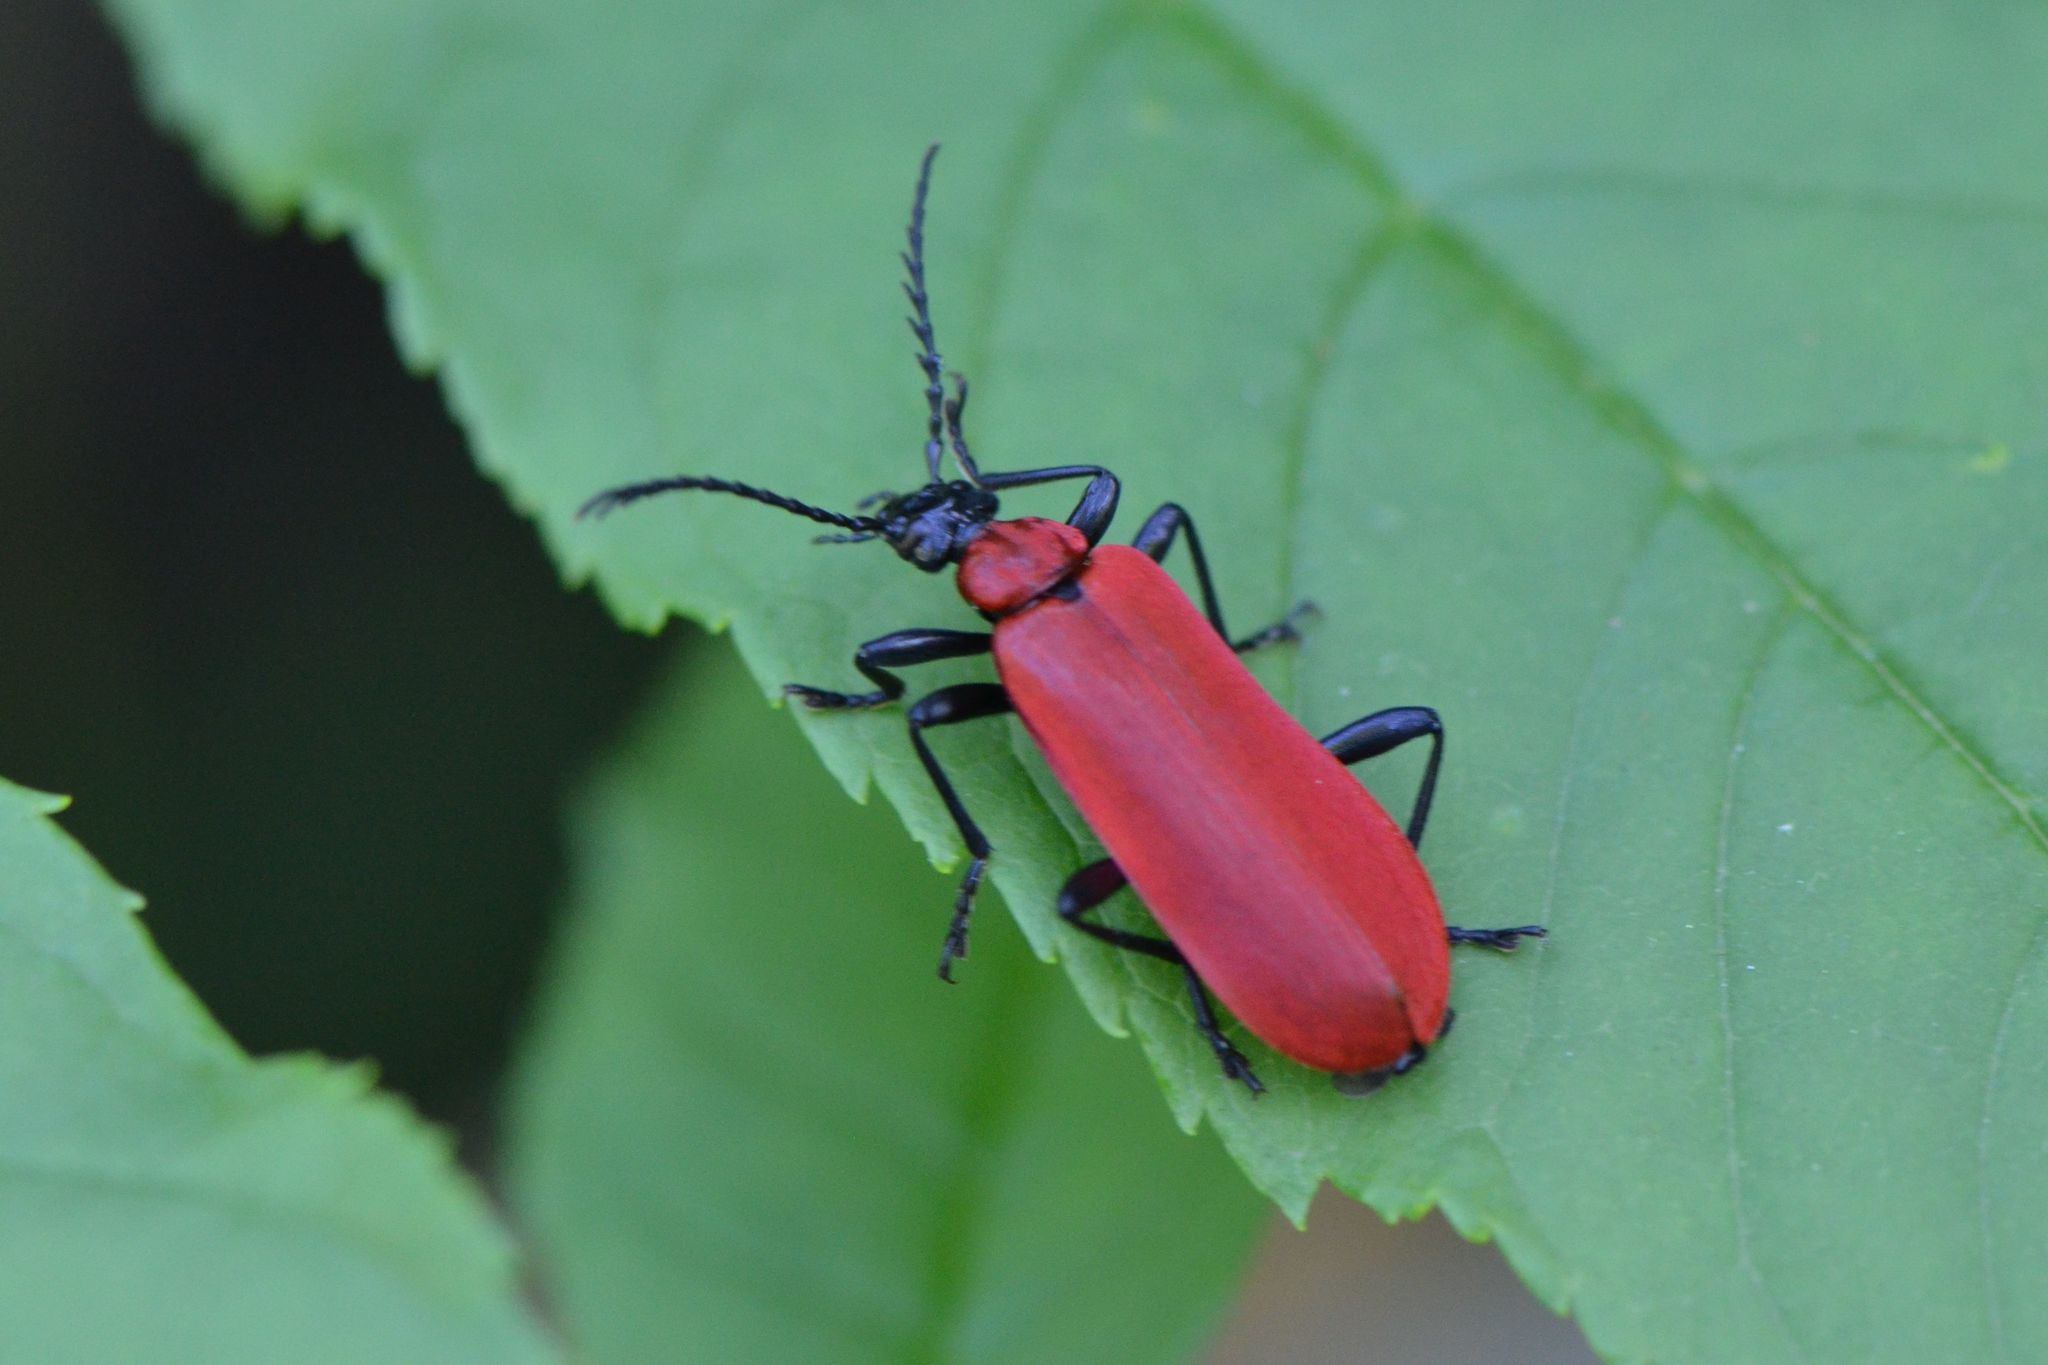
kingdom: Animalia
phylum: Arthropoda
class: Insecta
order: Coleoptera
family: Pyrochroidae
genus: Pyrochroa
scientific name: Pyrochroa coccinea
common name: Black-headed cardinal beetle
